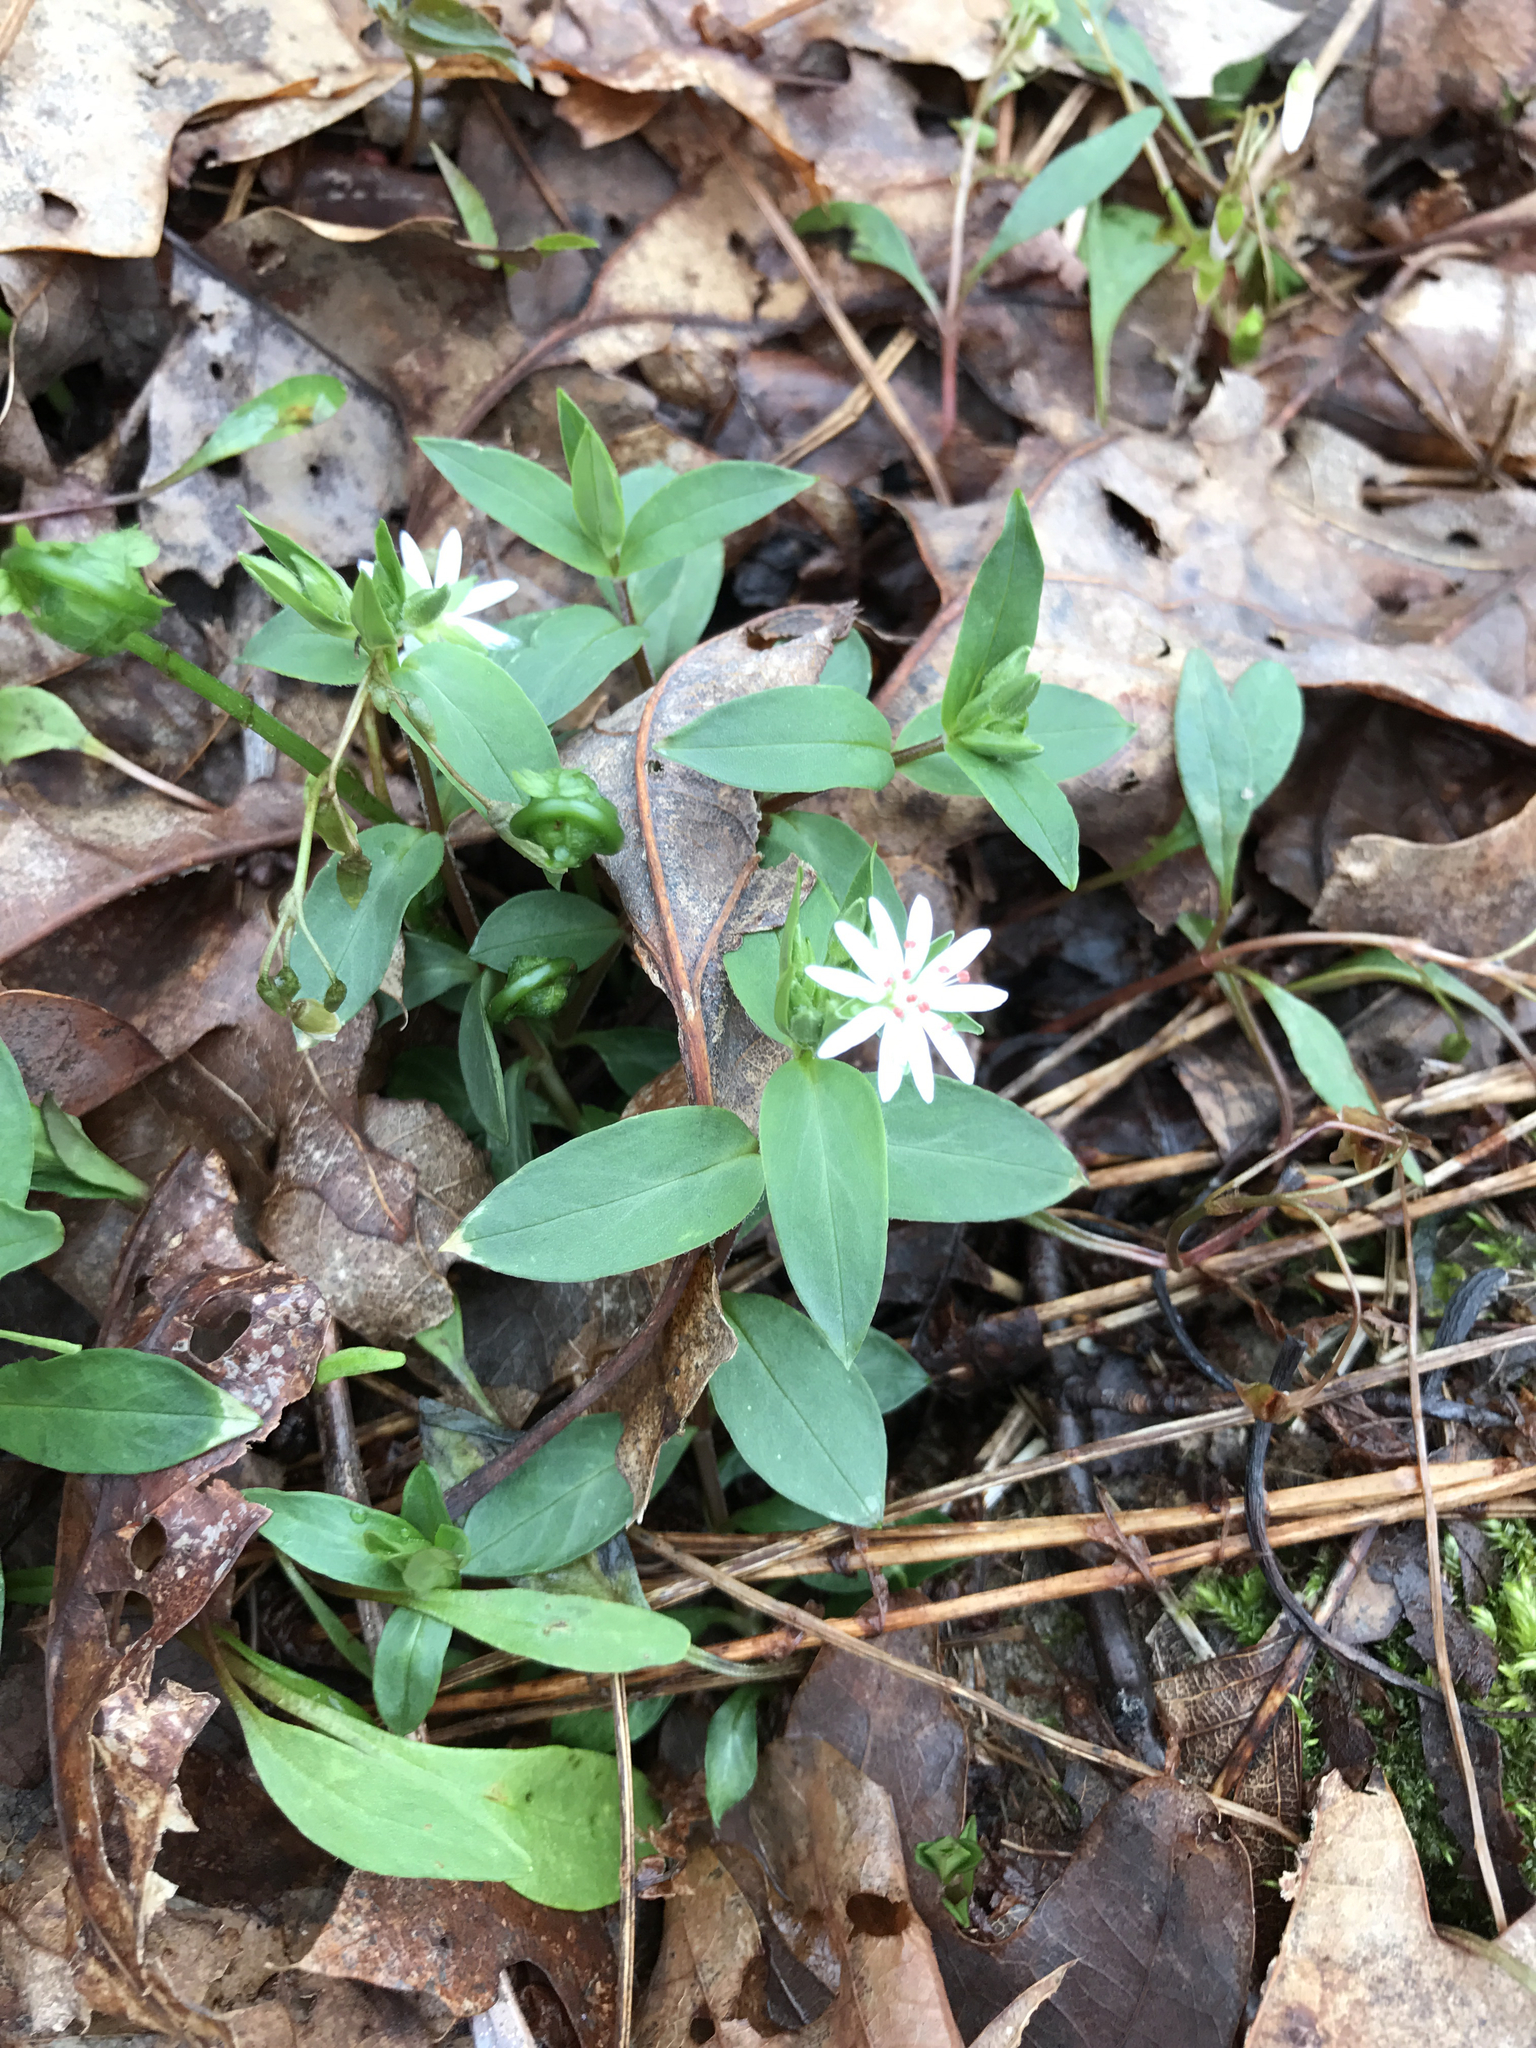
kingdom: Plantae
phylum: Tracheophyta
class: Magnoliopsida
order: Caryophyllales
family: Caryophyllaceae
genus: Stellaria
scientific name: Stellaria pubera
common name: Star chickweed
